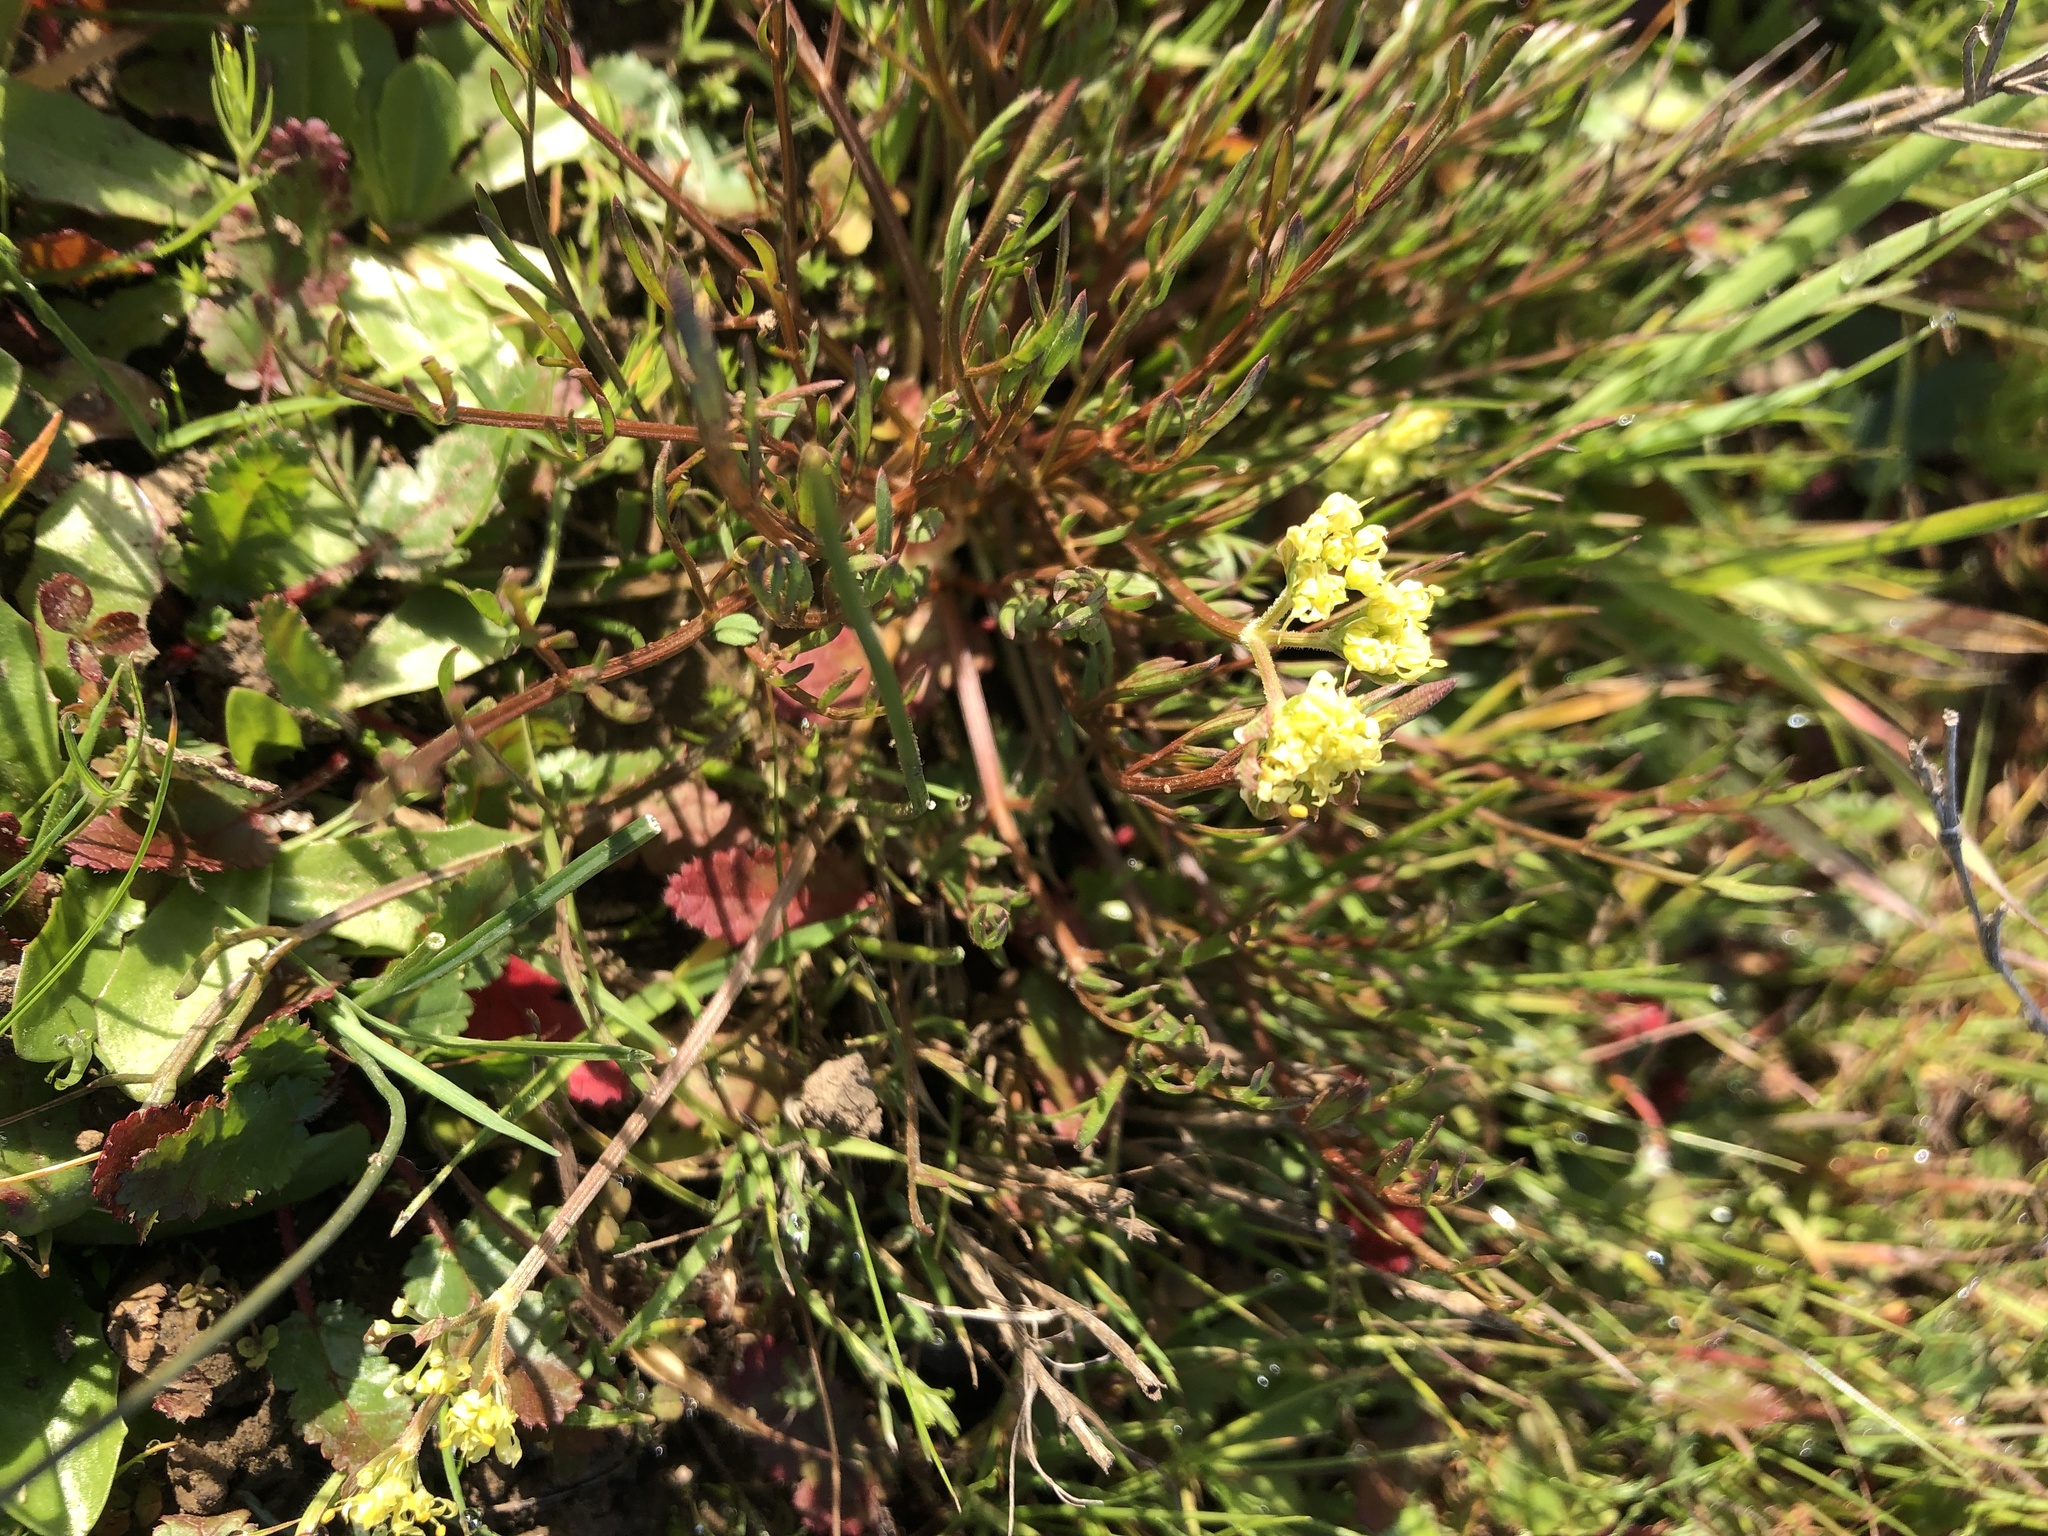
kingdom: Plantae
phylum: Tracheophyta
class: Magnoliopsida
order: Apiales
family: Apiaceae
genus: Lomatium
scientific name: Lomatium caruifolium
